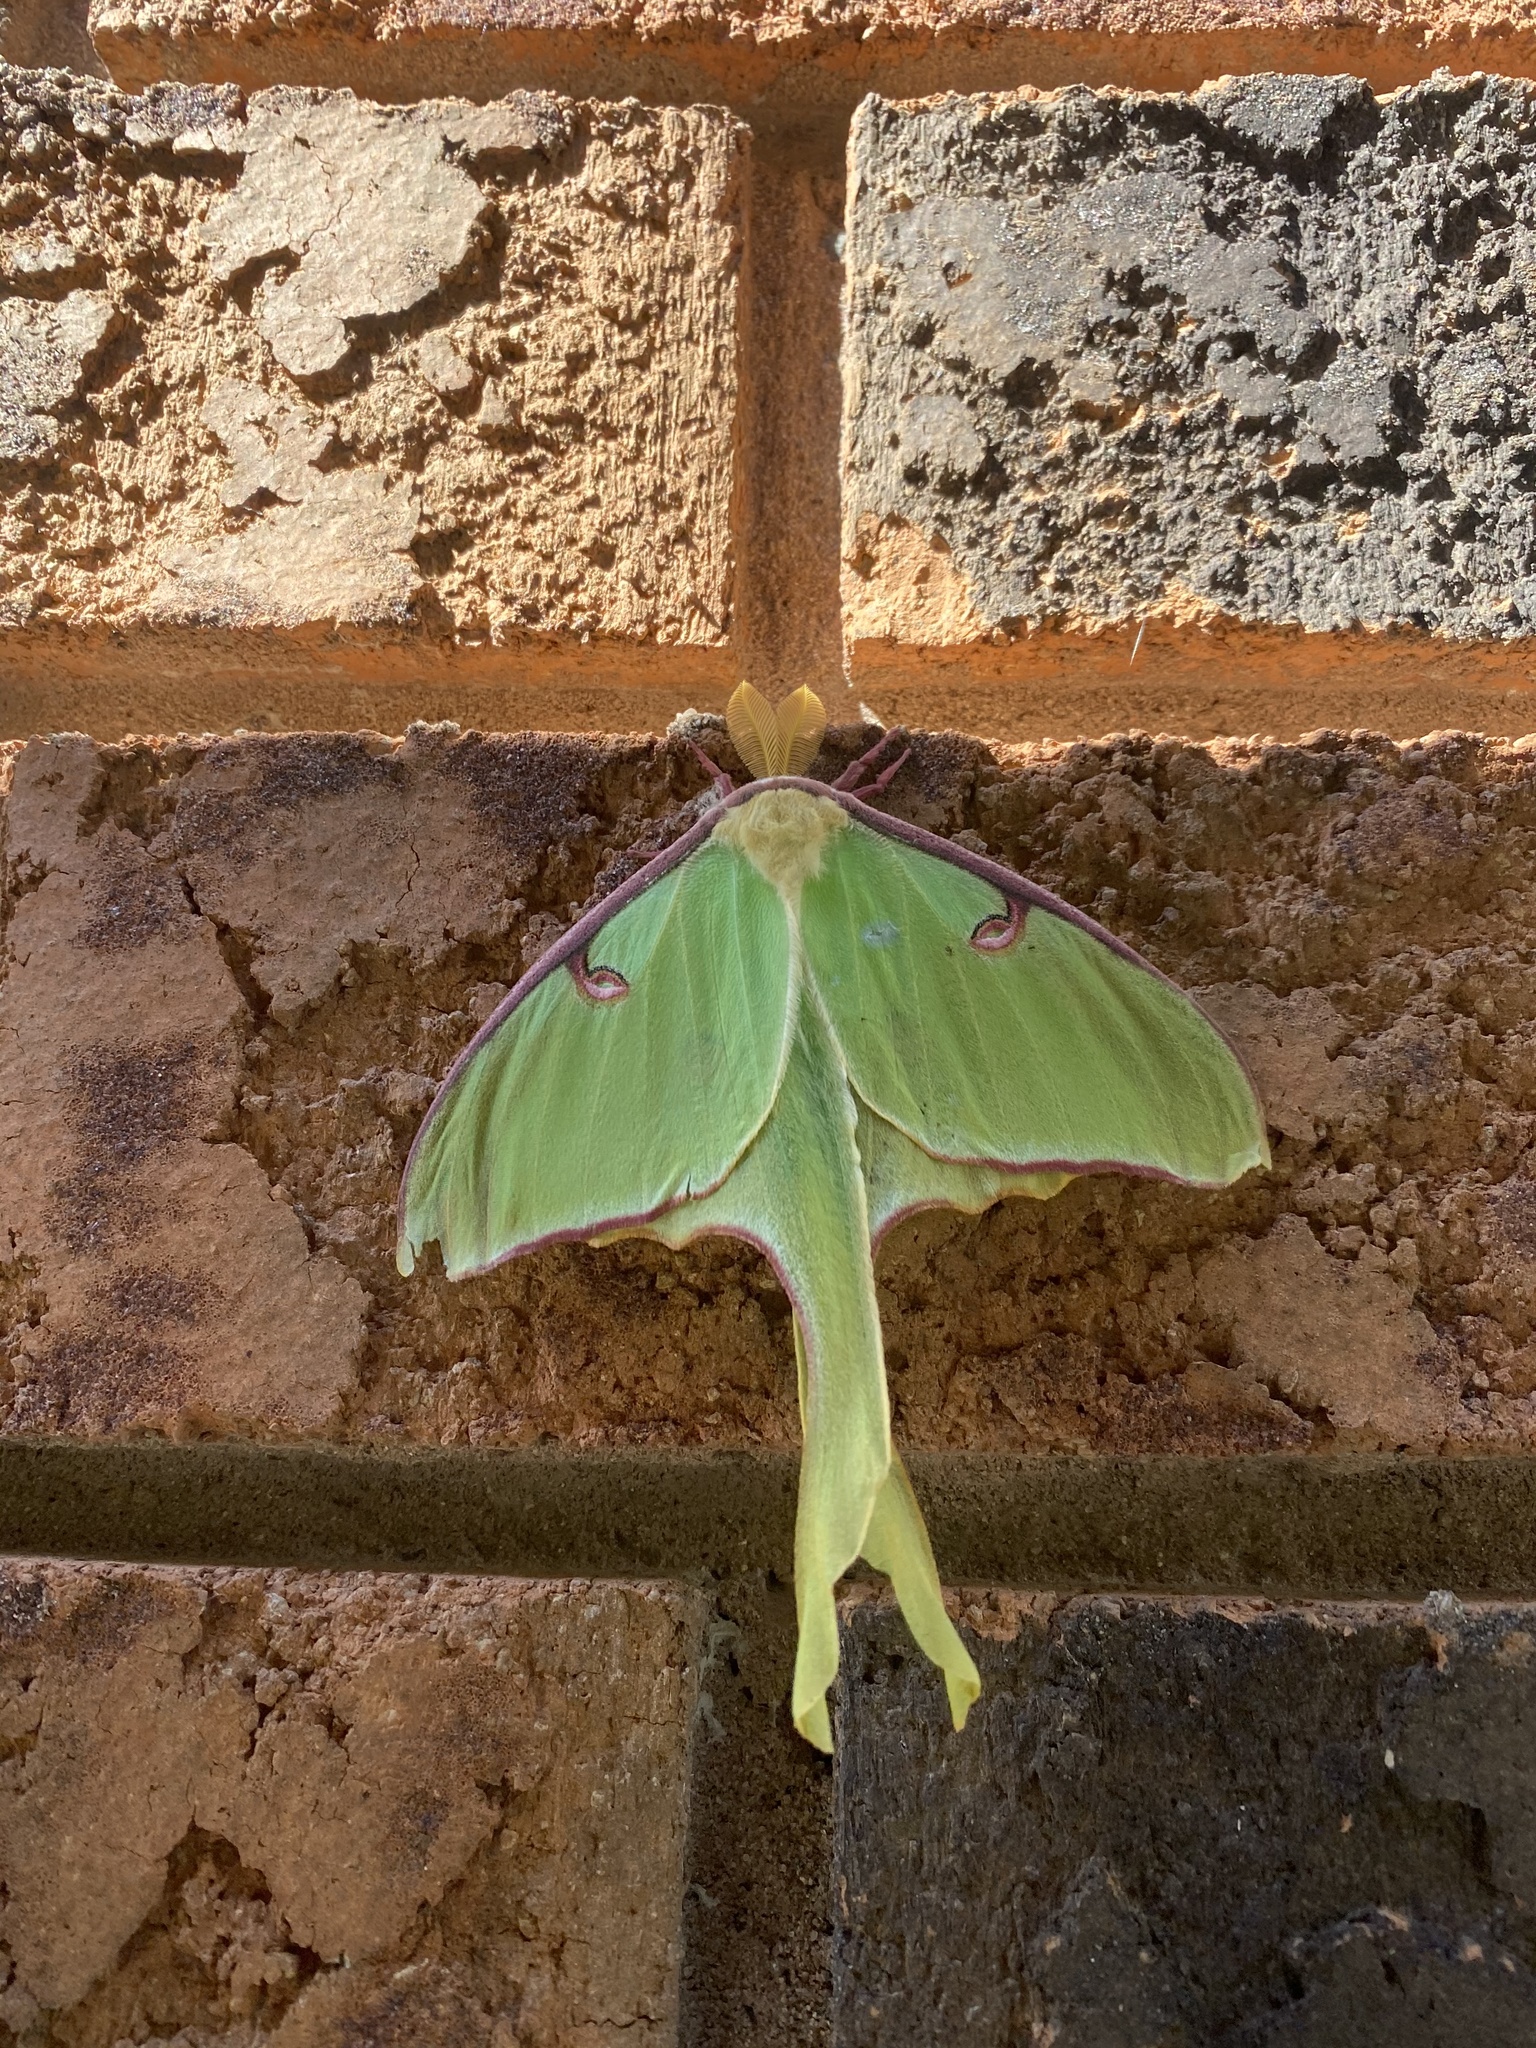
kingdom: Animalia
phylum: Arthropoda
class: Insecta
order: Lepidoptera
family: Saturniidae
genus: Actias
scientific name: Actias luna
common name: Luna moth
